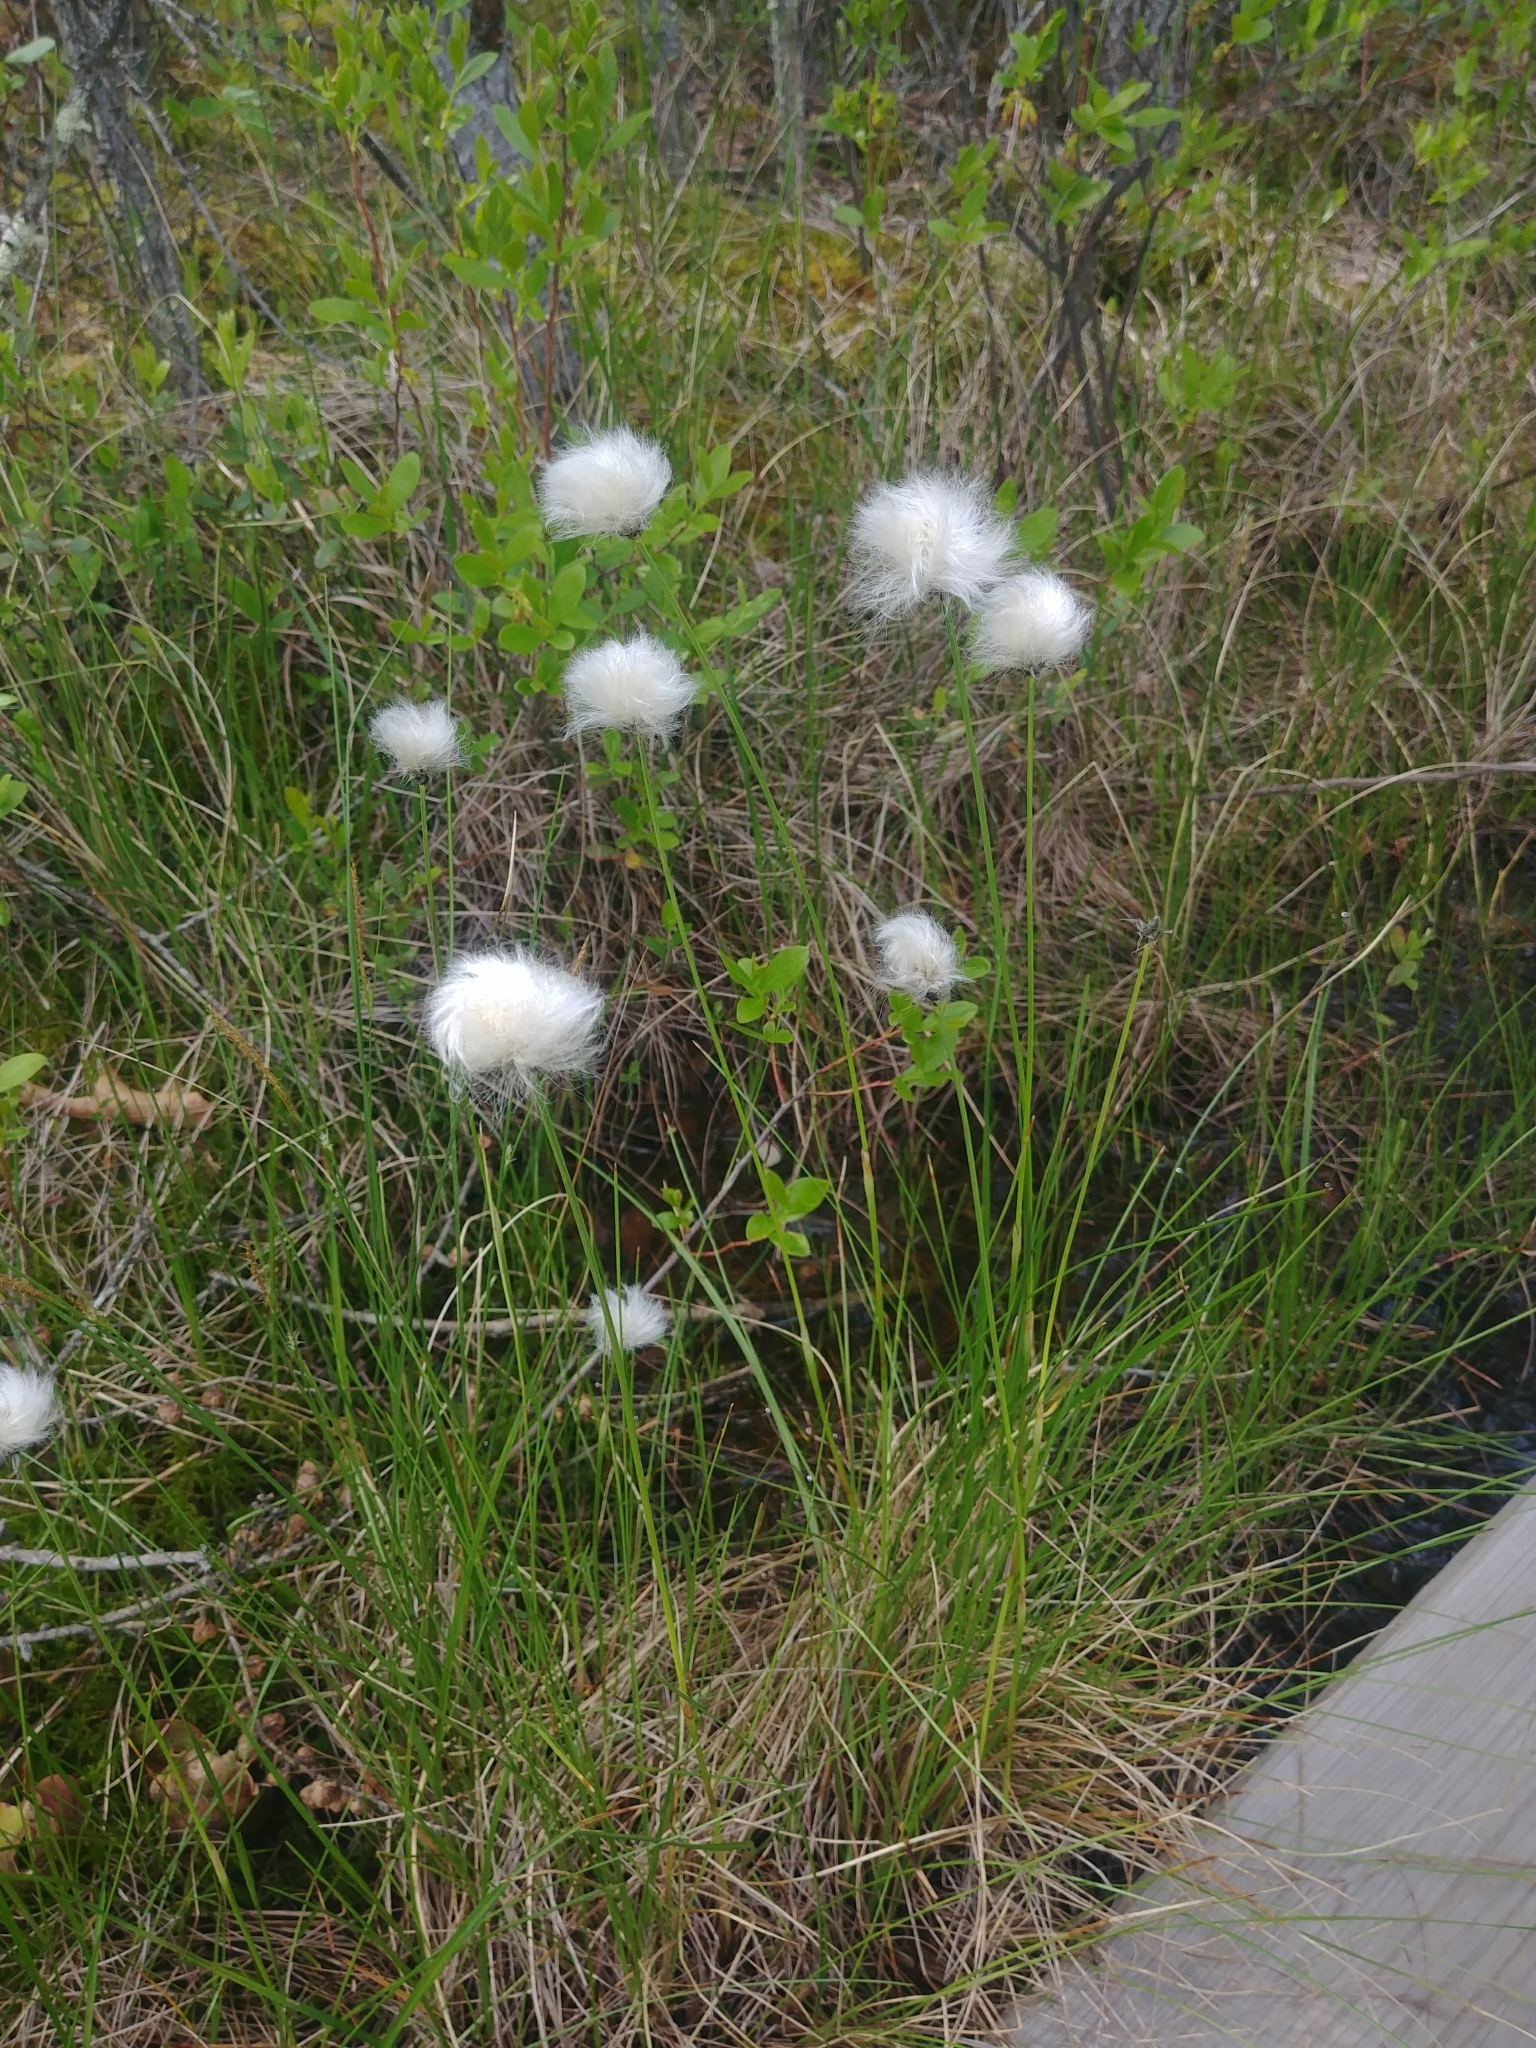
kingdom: Plantae
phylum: Tracheophyta
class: Liliopsida
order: Poales
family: Cyperaceae
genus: Eriophorum
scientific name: Eriophorum vaginatum
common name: Hare's-tail cottongrass
